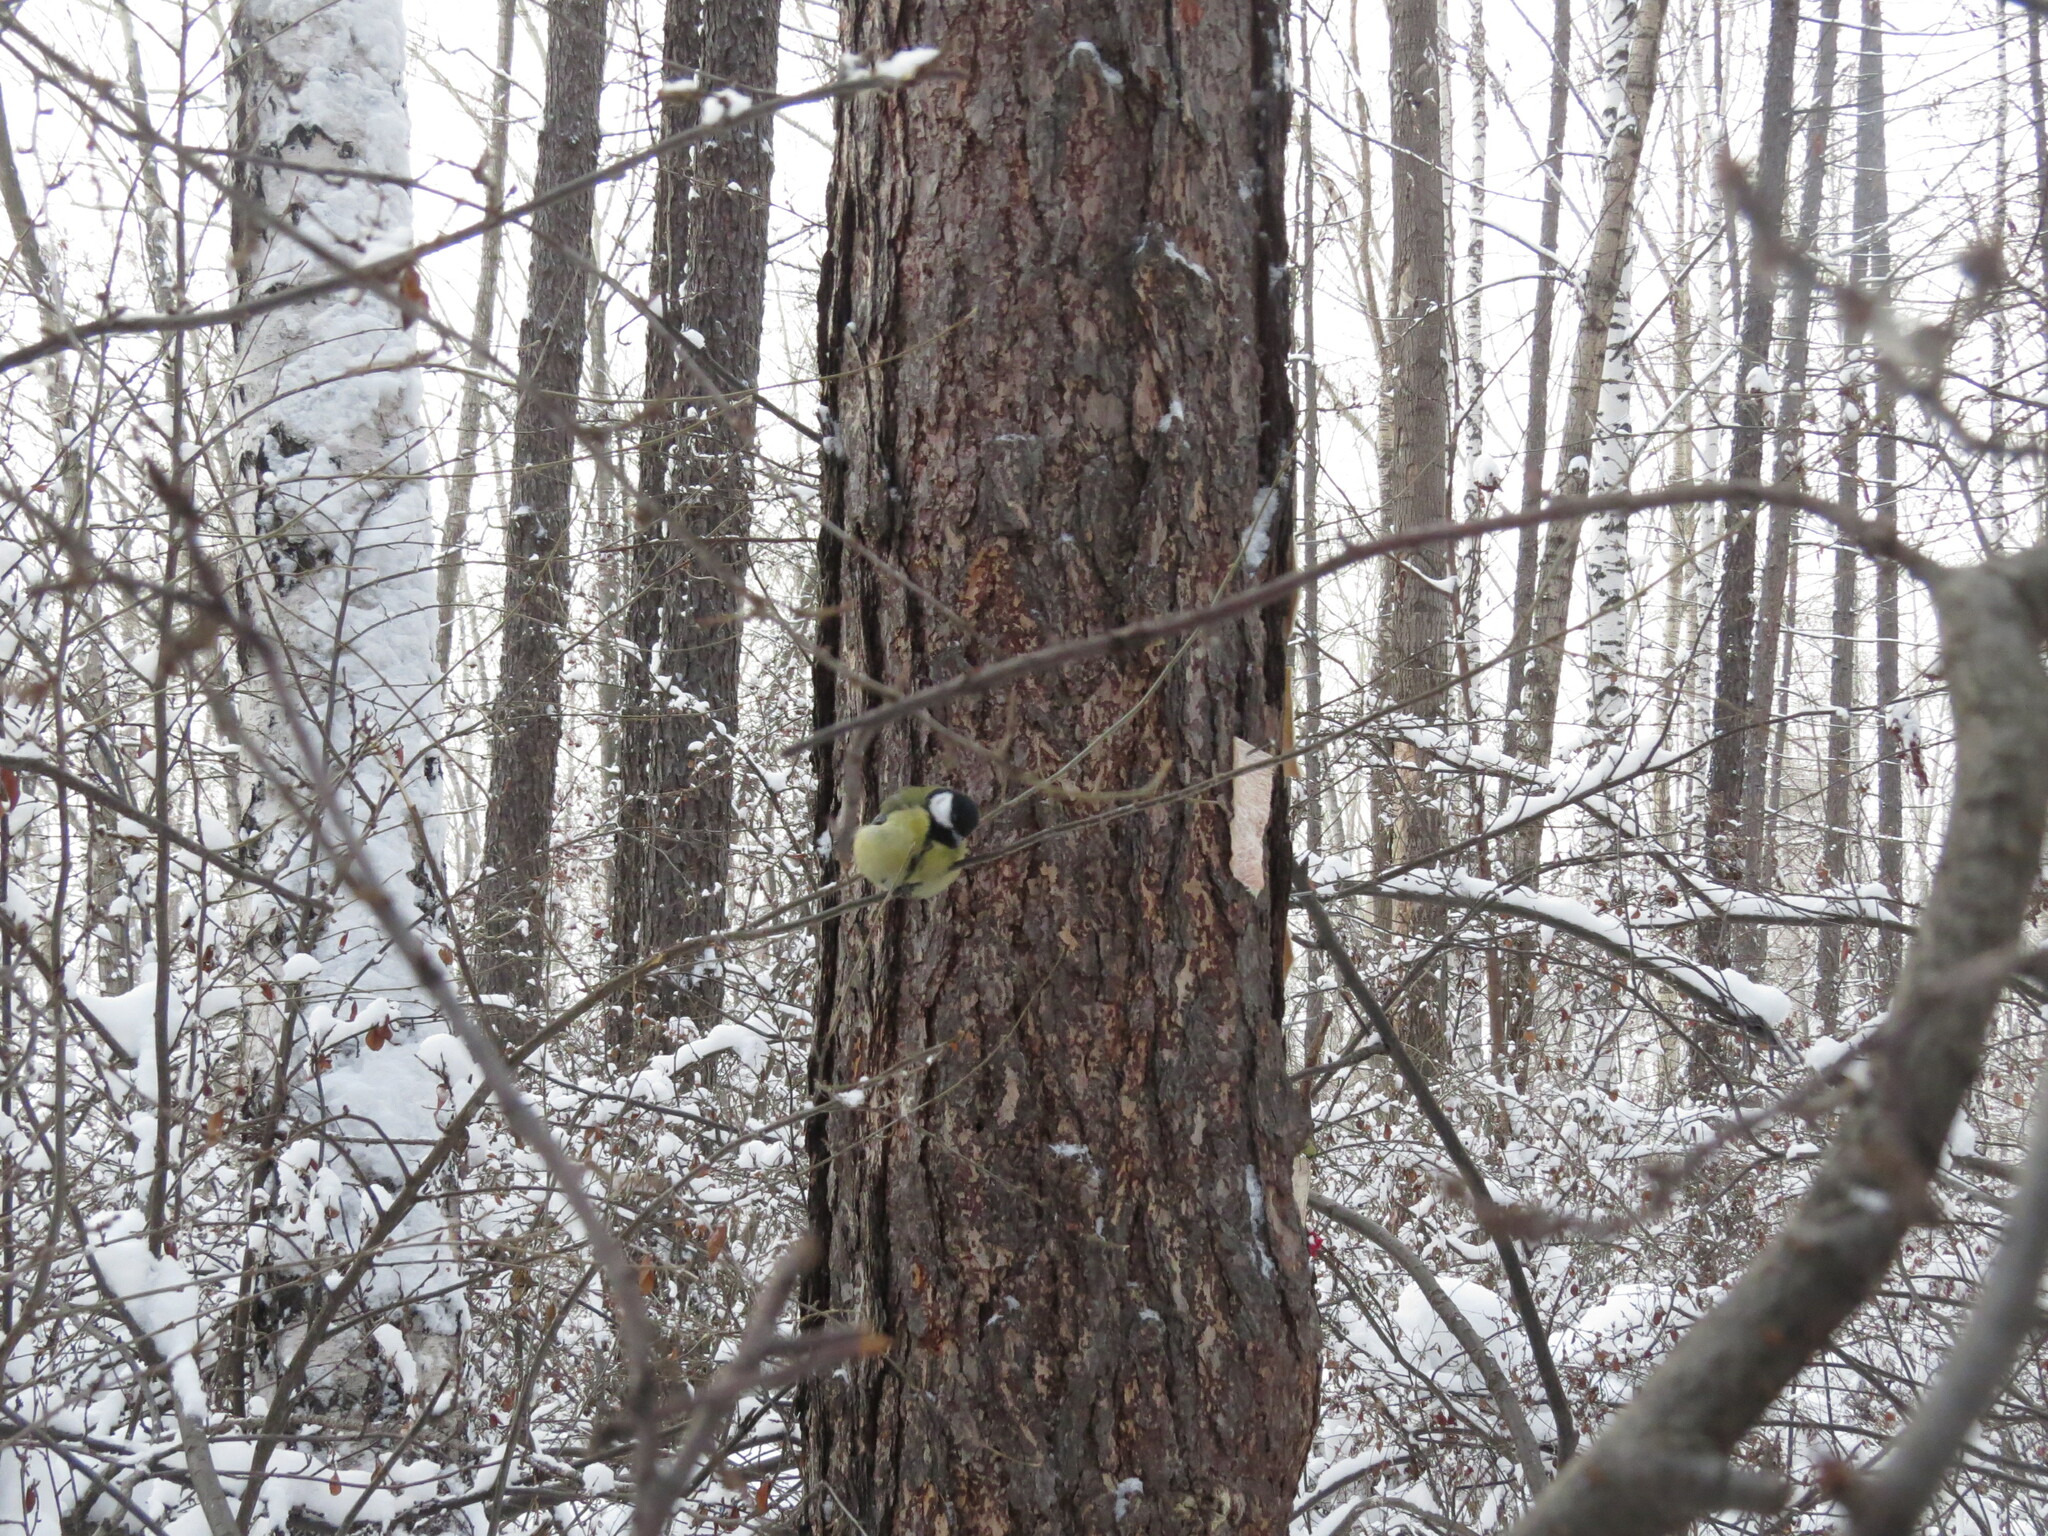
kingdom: Animalia
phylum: Chordata
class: Aves
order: Passeriformes
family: Paridae
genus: Parus
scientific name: Parus major
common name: Great tit
